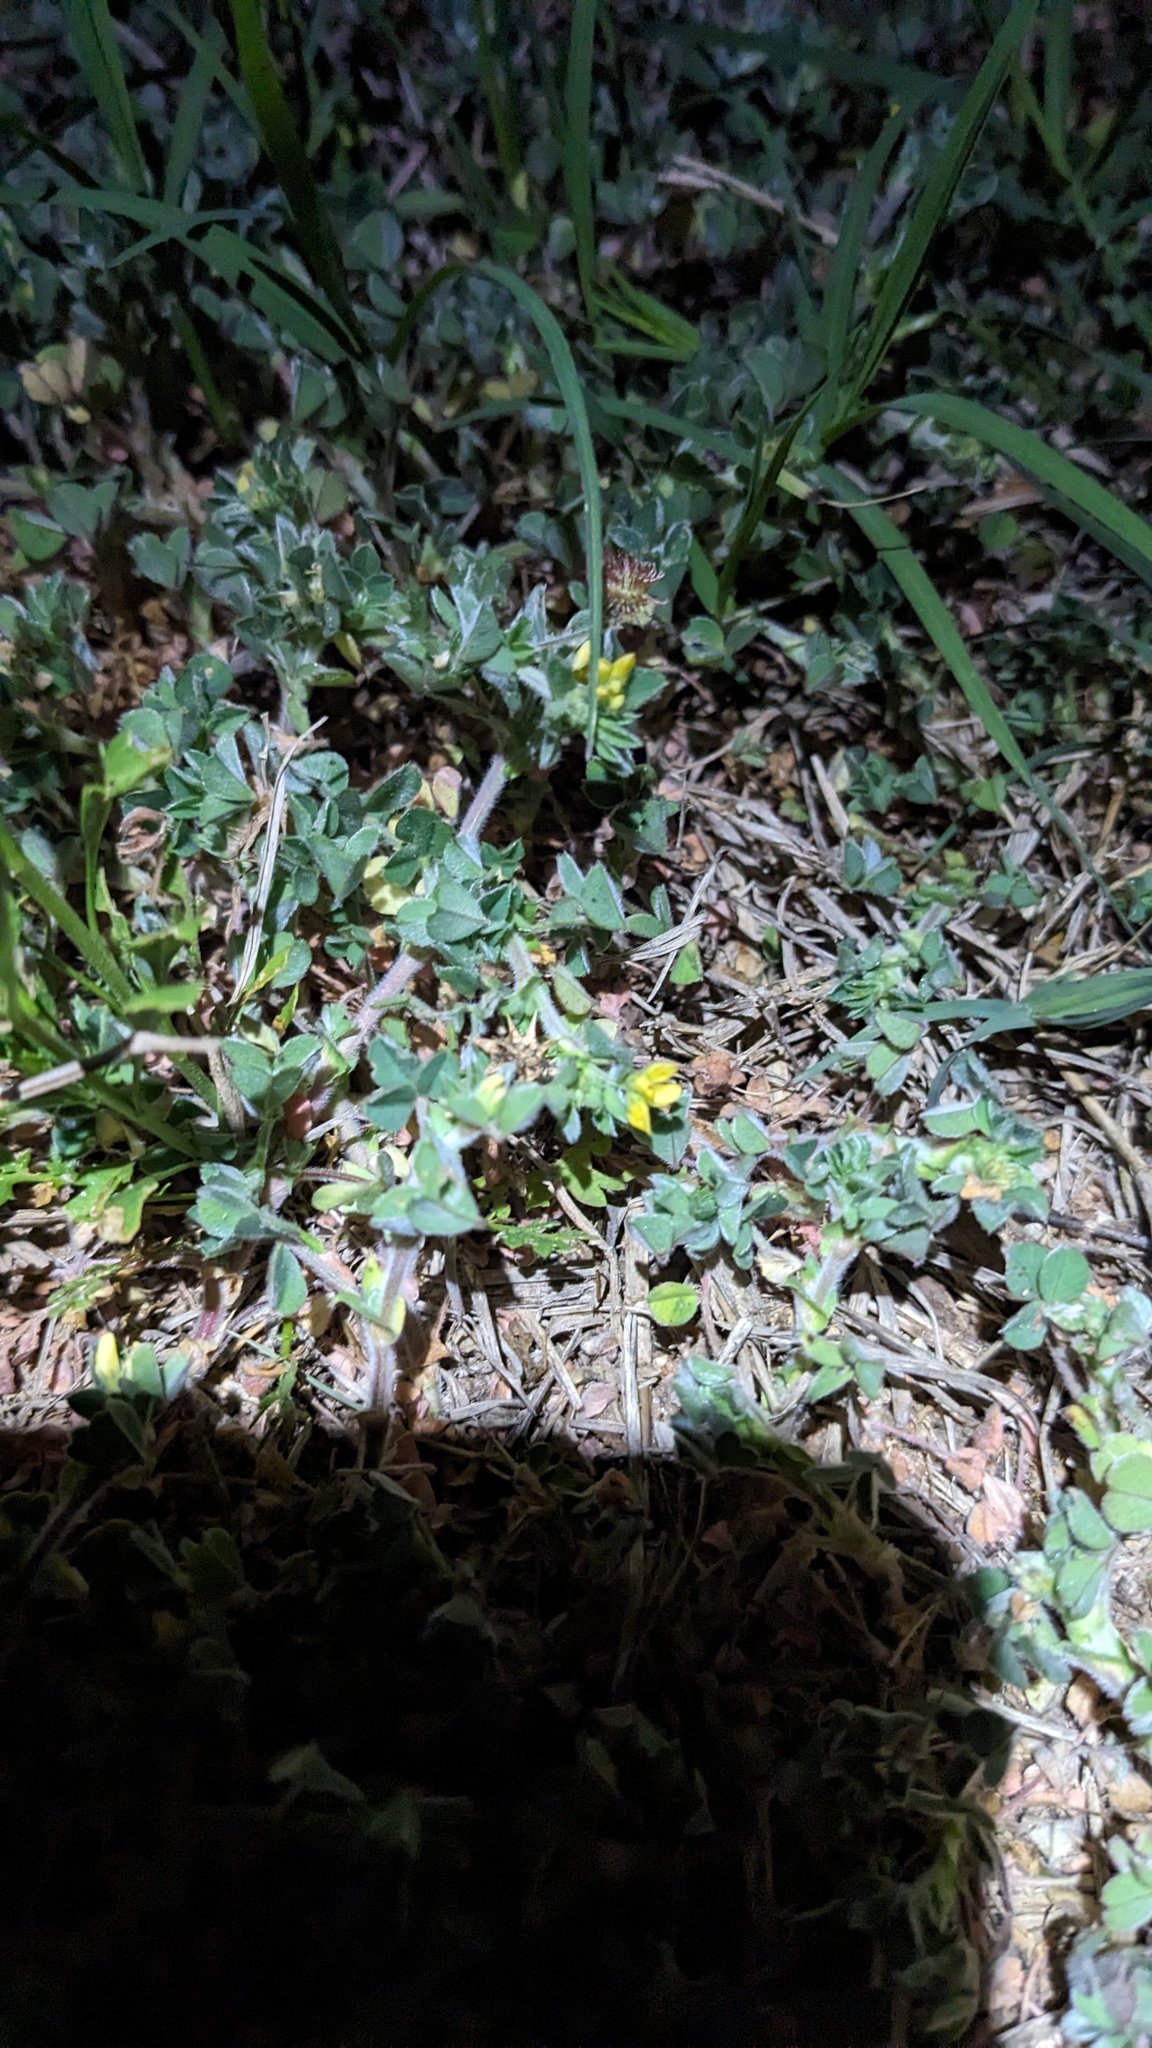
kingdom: Plantae
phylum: Tracheophyta
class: Magnoliopsida
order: Fabales
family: Fabaceae
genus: Medicago
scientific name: Medicago minima
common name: Little bur-clover
